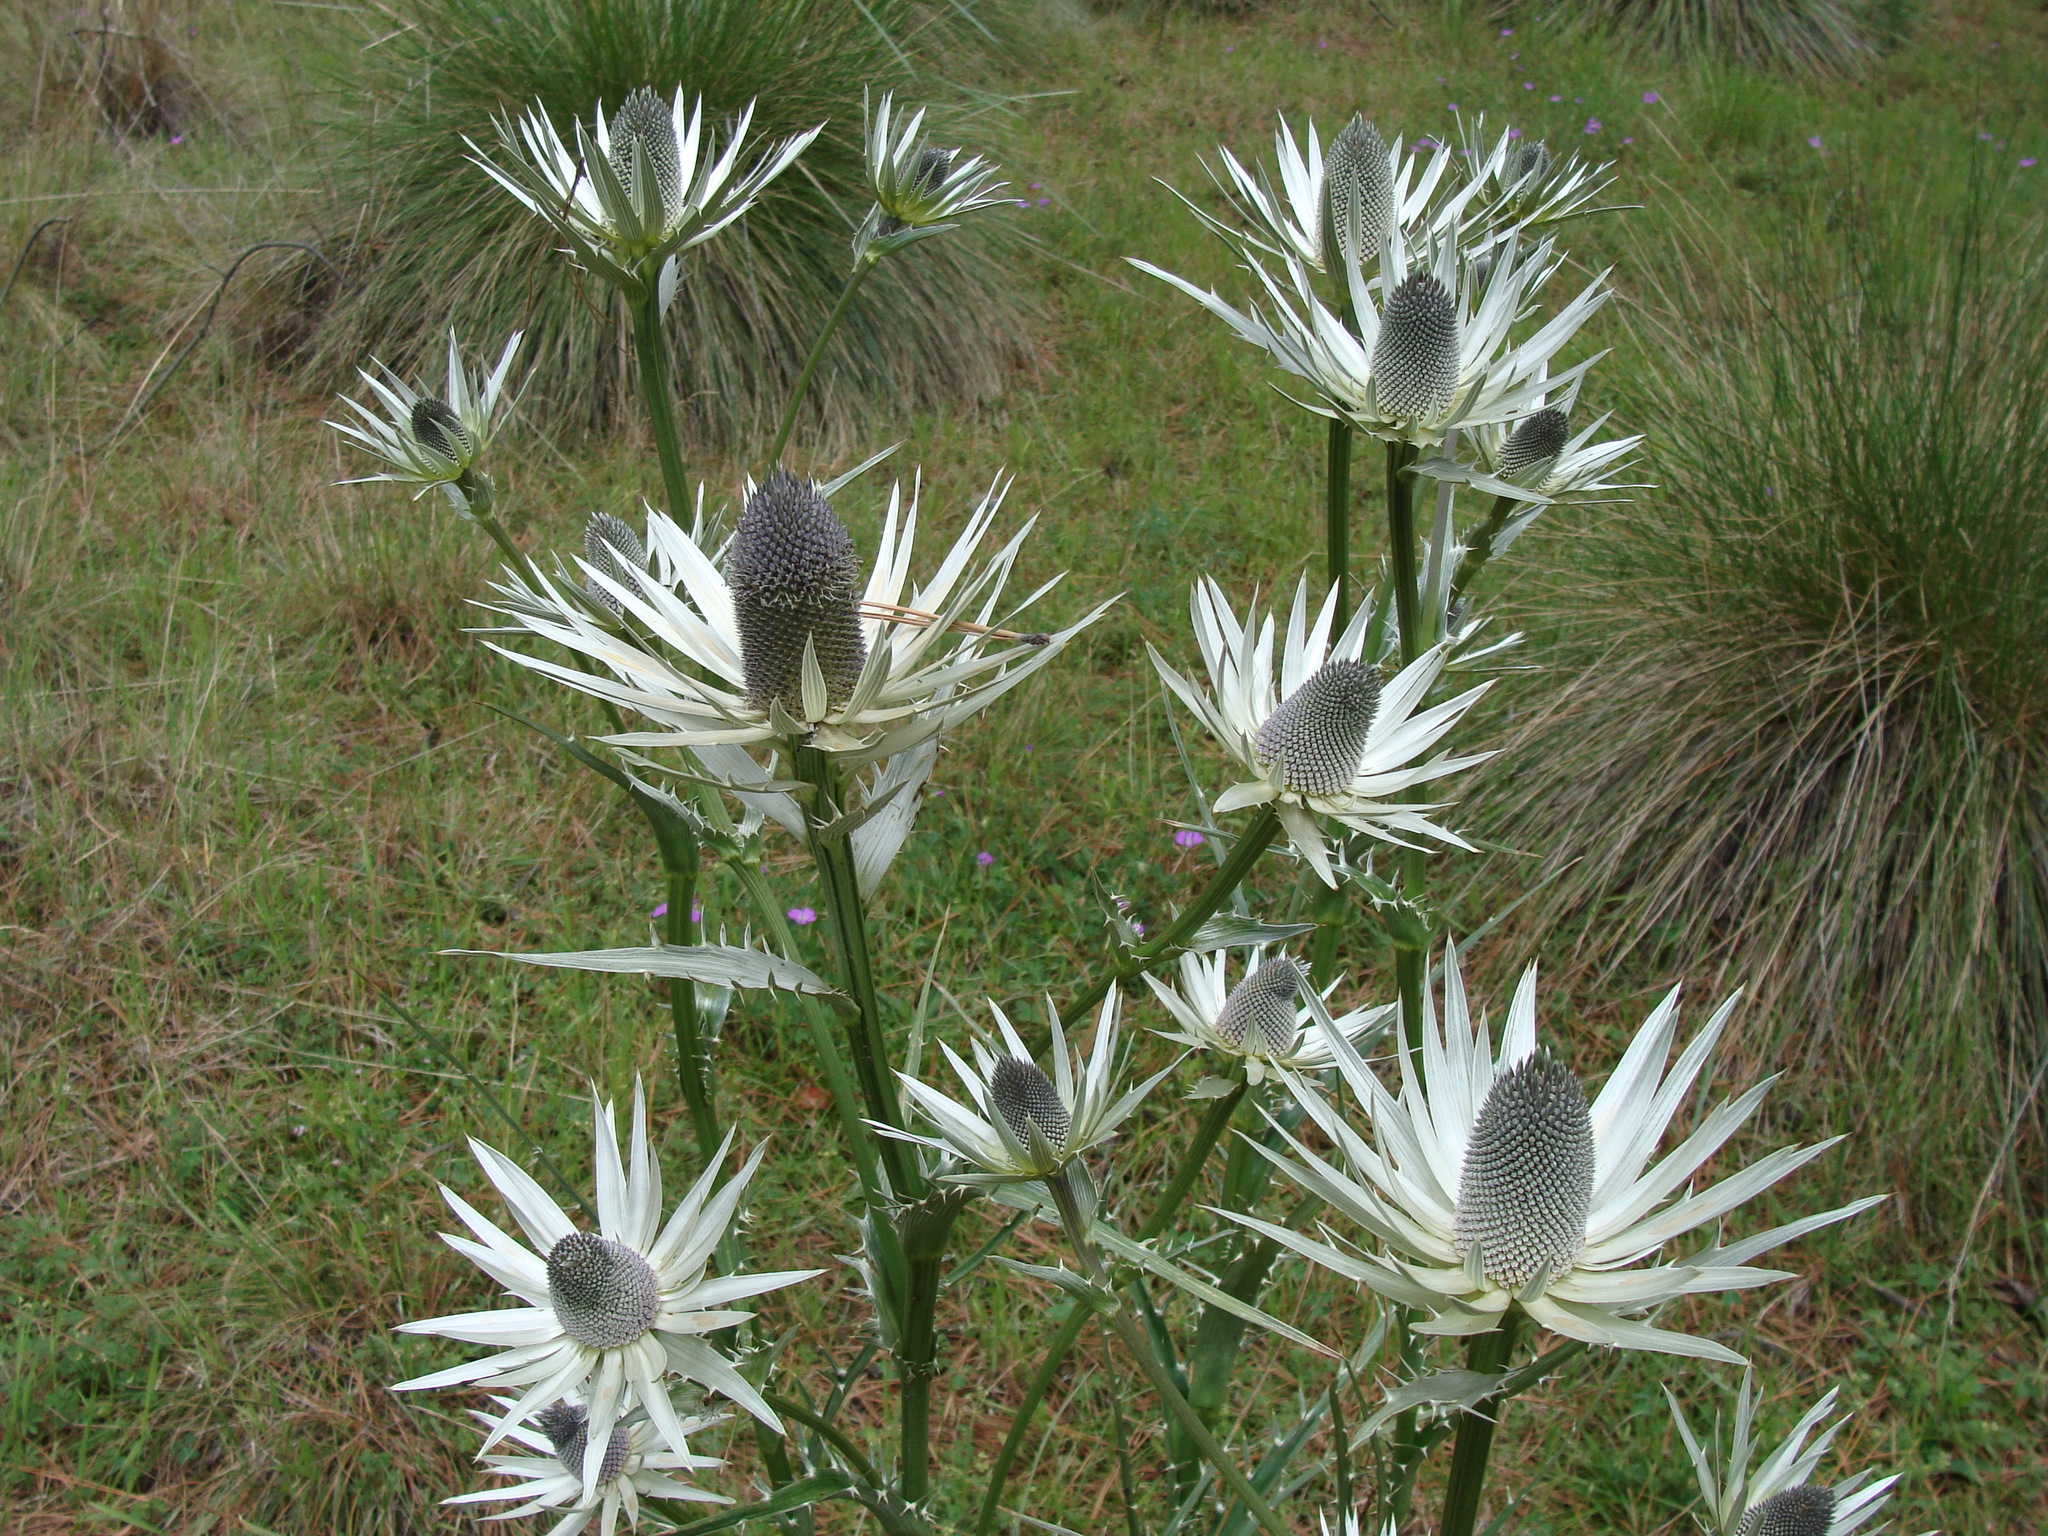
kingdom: Plantae
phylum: Tracheophyta
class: Magnoliopsida
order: Apiales
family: Apiaceae
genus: Eryngium
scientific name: Eryngium proteiflorum
